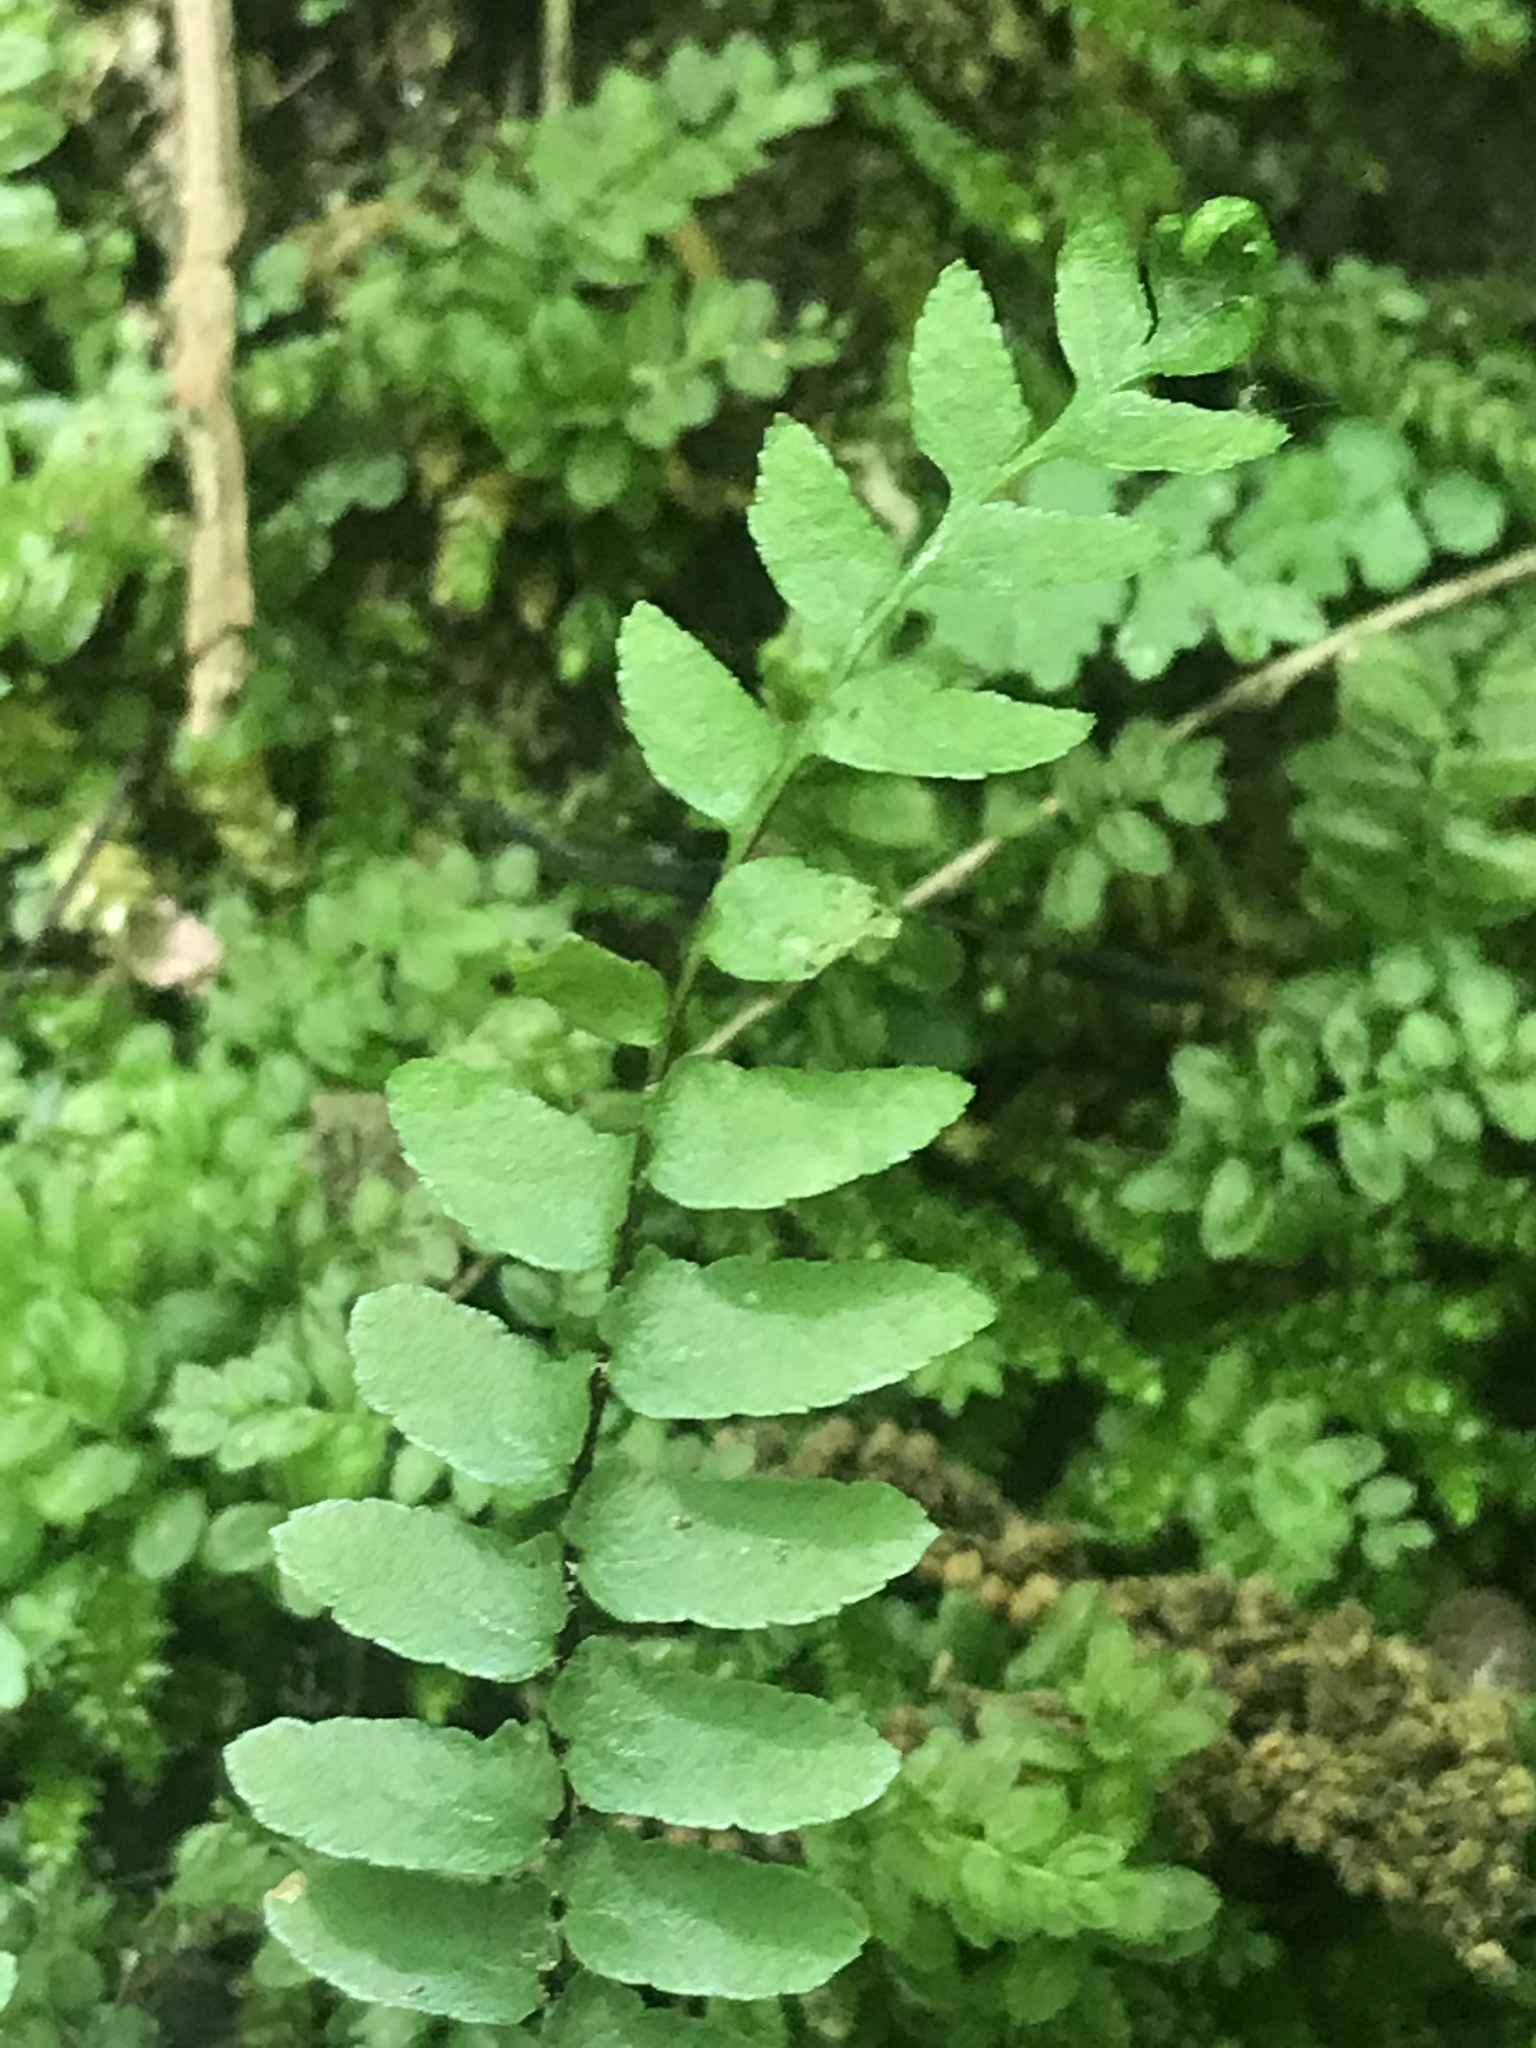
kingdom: Plantae
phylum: Tracheophyta
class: Polypodiopsida
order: Polypodiales
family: Aspleniaceae
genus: Asplenium
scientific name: Asplenium platyneuron
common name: Ebony spleenwort
